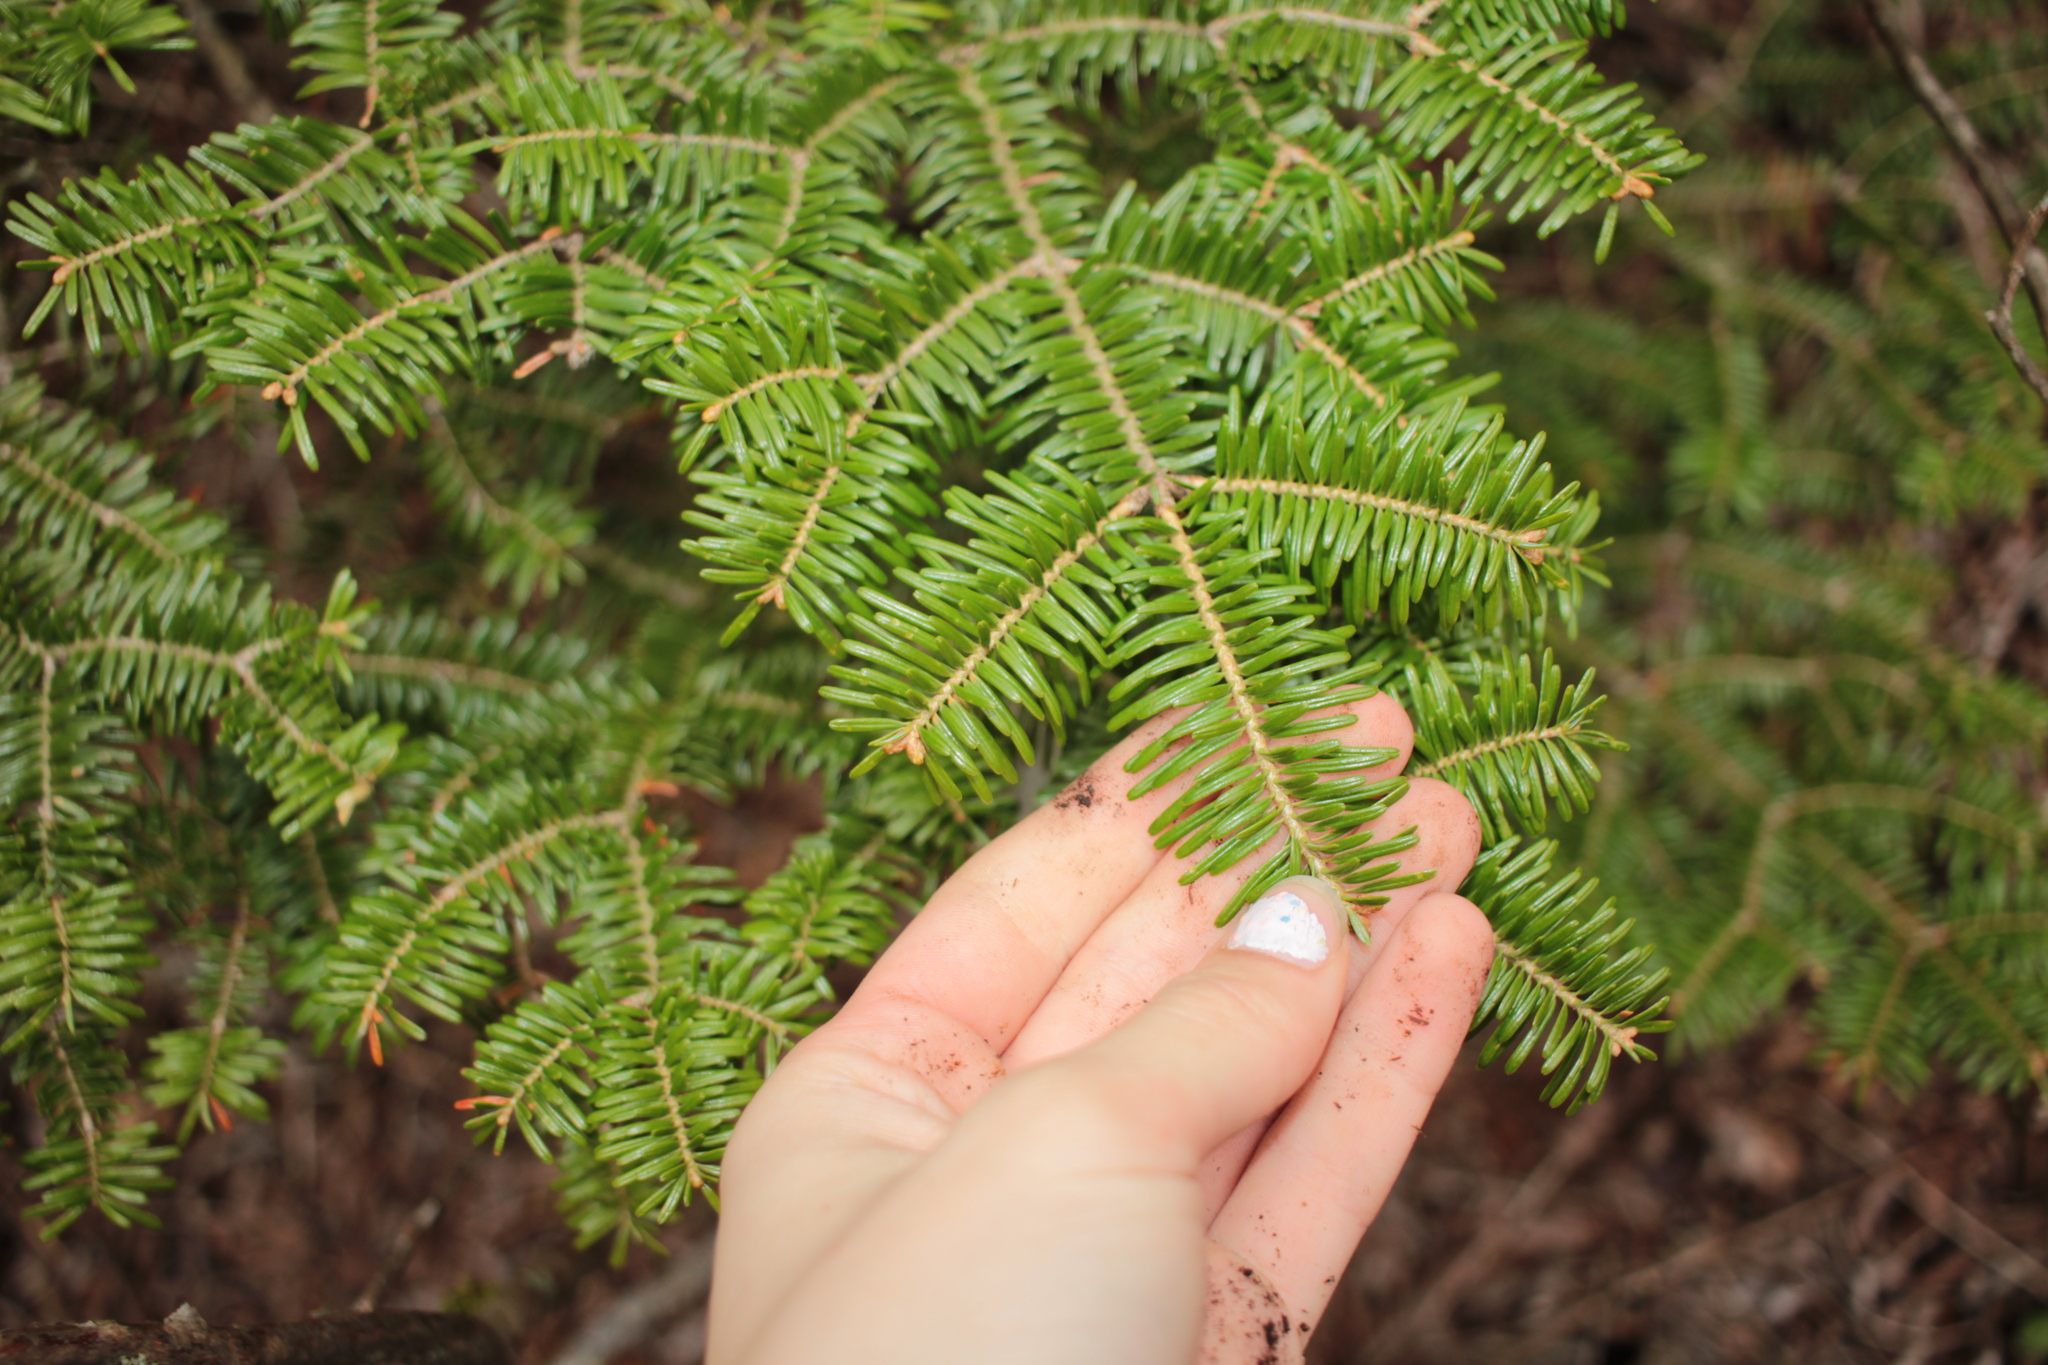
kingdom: Plantae
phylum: Tracheophyta
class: Pinopsida
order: Pinales
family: Pinaceae
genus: Abies
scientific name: Abies fraseri
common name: Fraser fir
